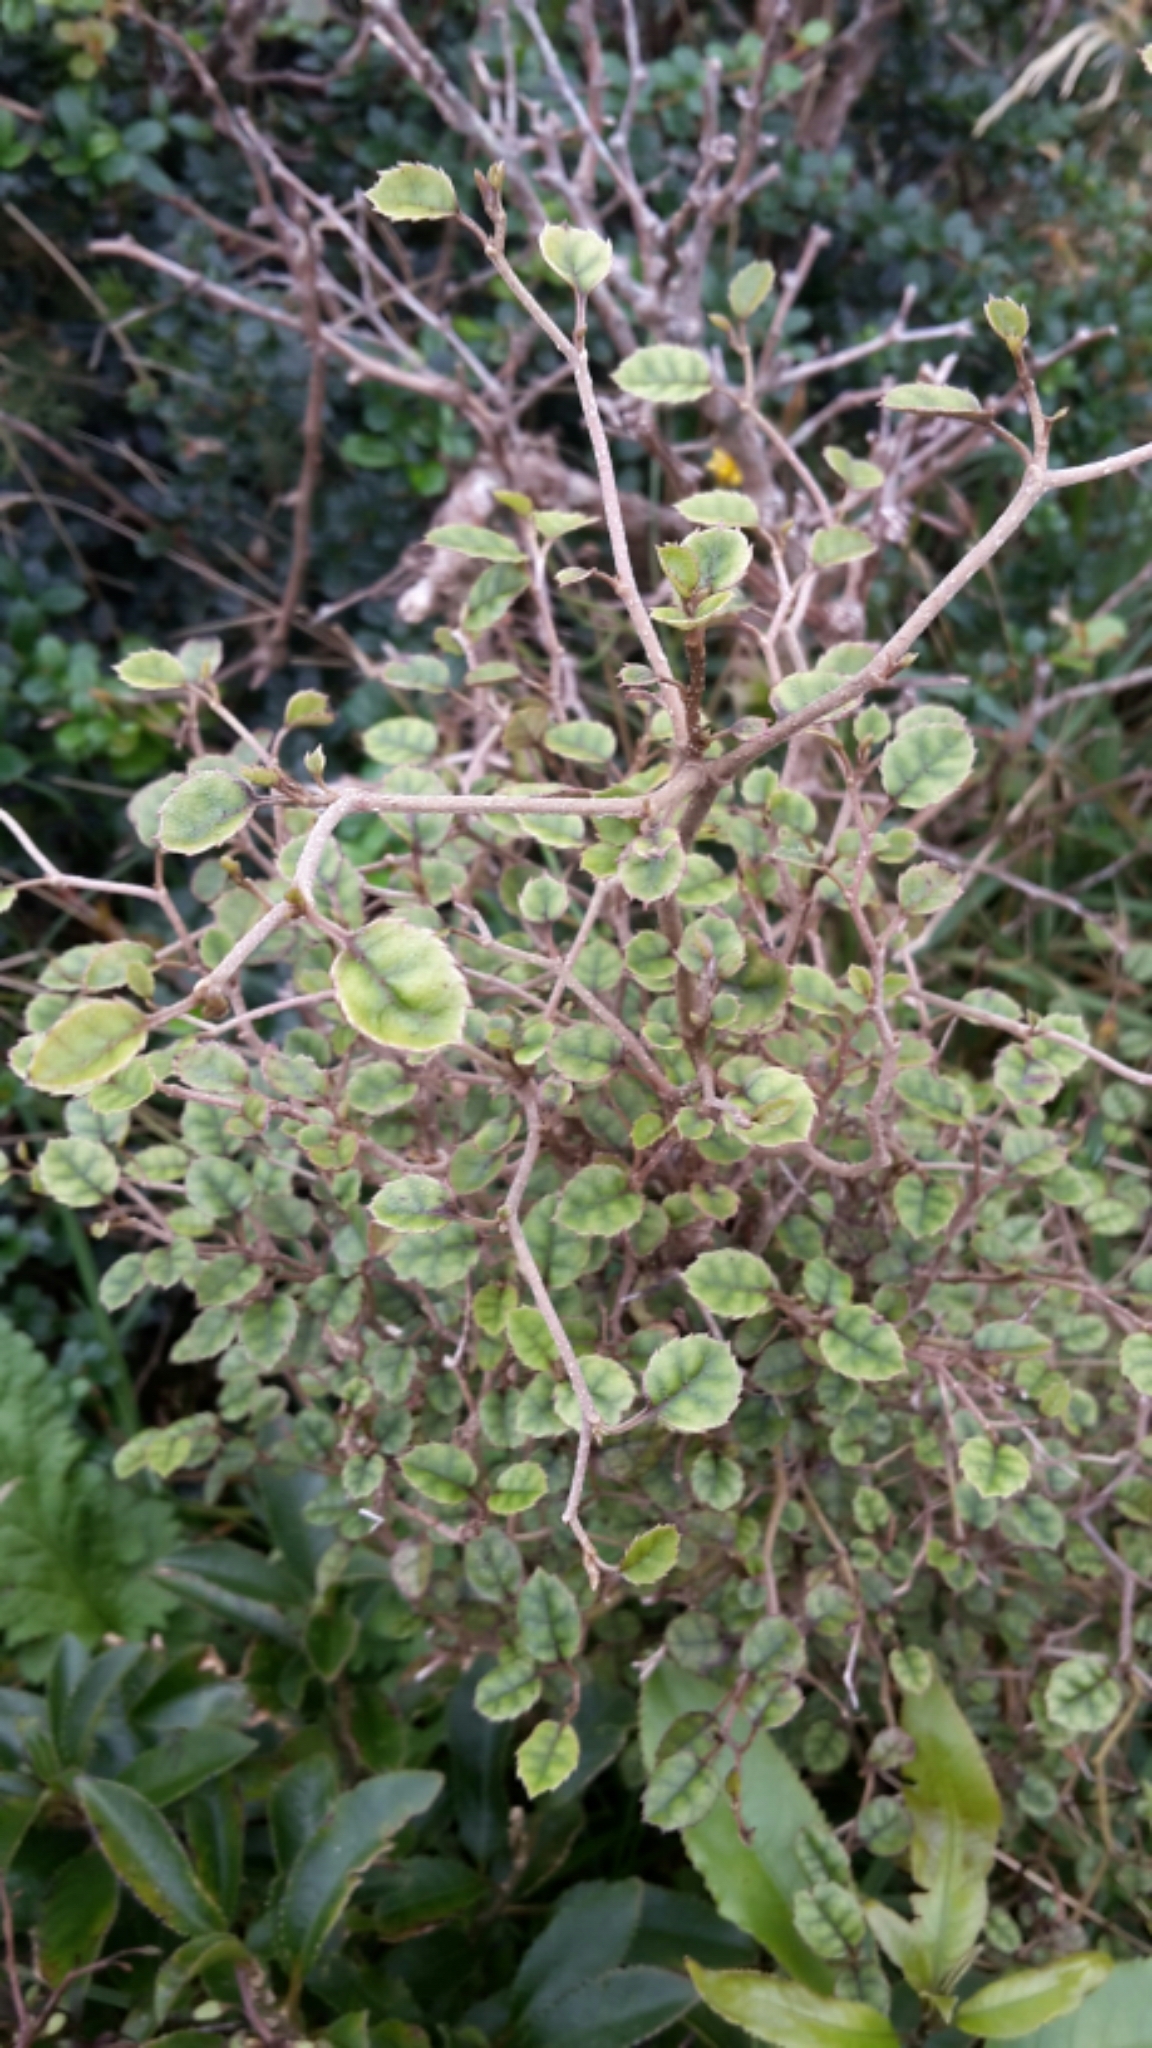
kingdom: Plantae
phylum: Tracheophyta
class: Magnoliopsida
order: Asterales
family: Rousseaceae
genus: Carpodetus
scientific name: Carpodetus serratus
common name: White mapau
